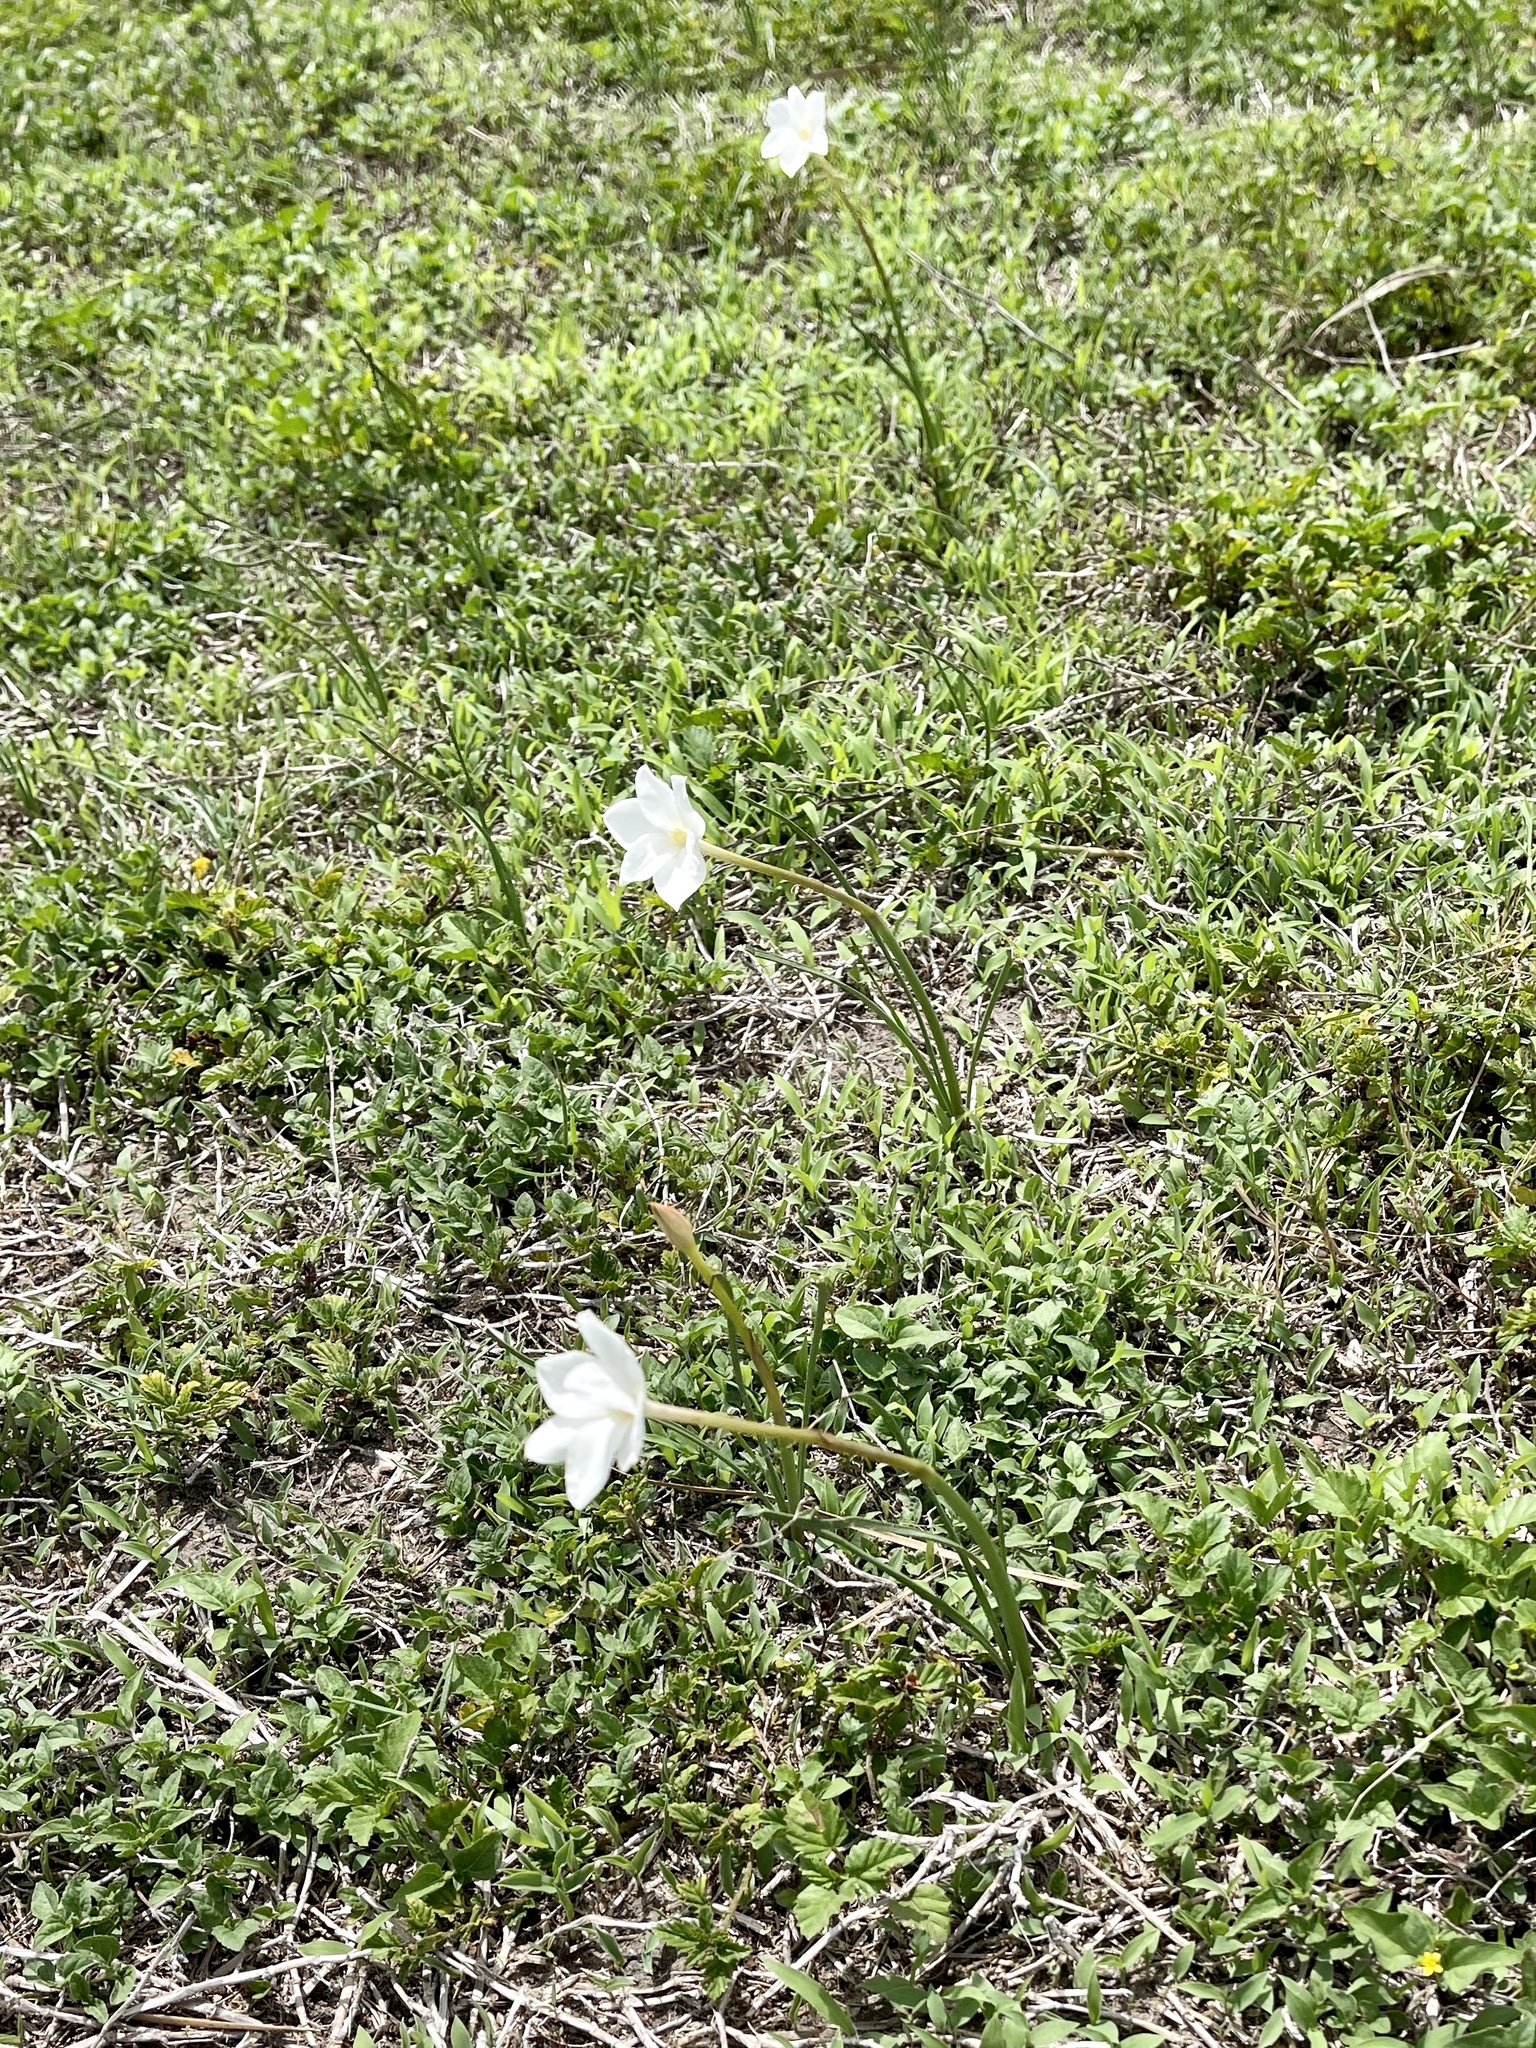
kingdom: Plantae
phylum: Tracheophyta
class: Liliopsida
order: Asparagales
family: Amaryllidaceae
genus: Zephyranthes
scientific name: Zephyranthes chlorosolen
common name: Evening rain-lily
